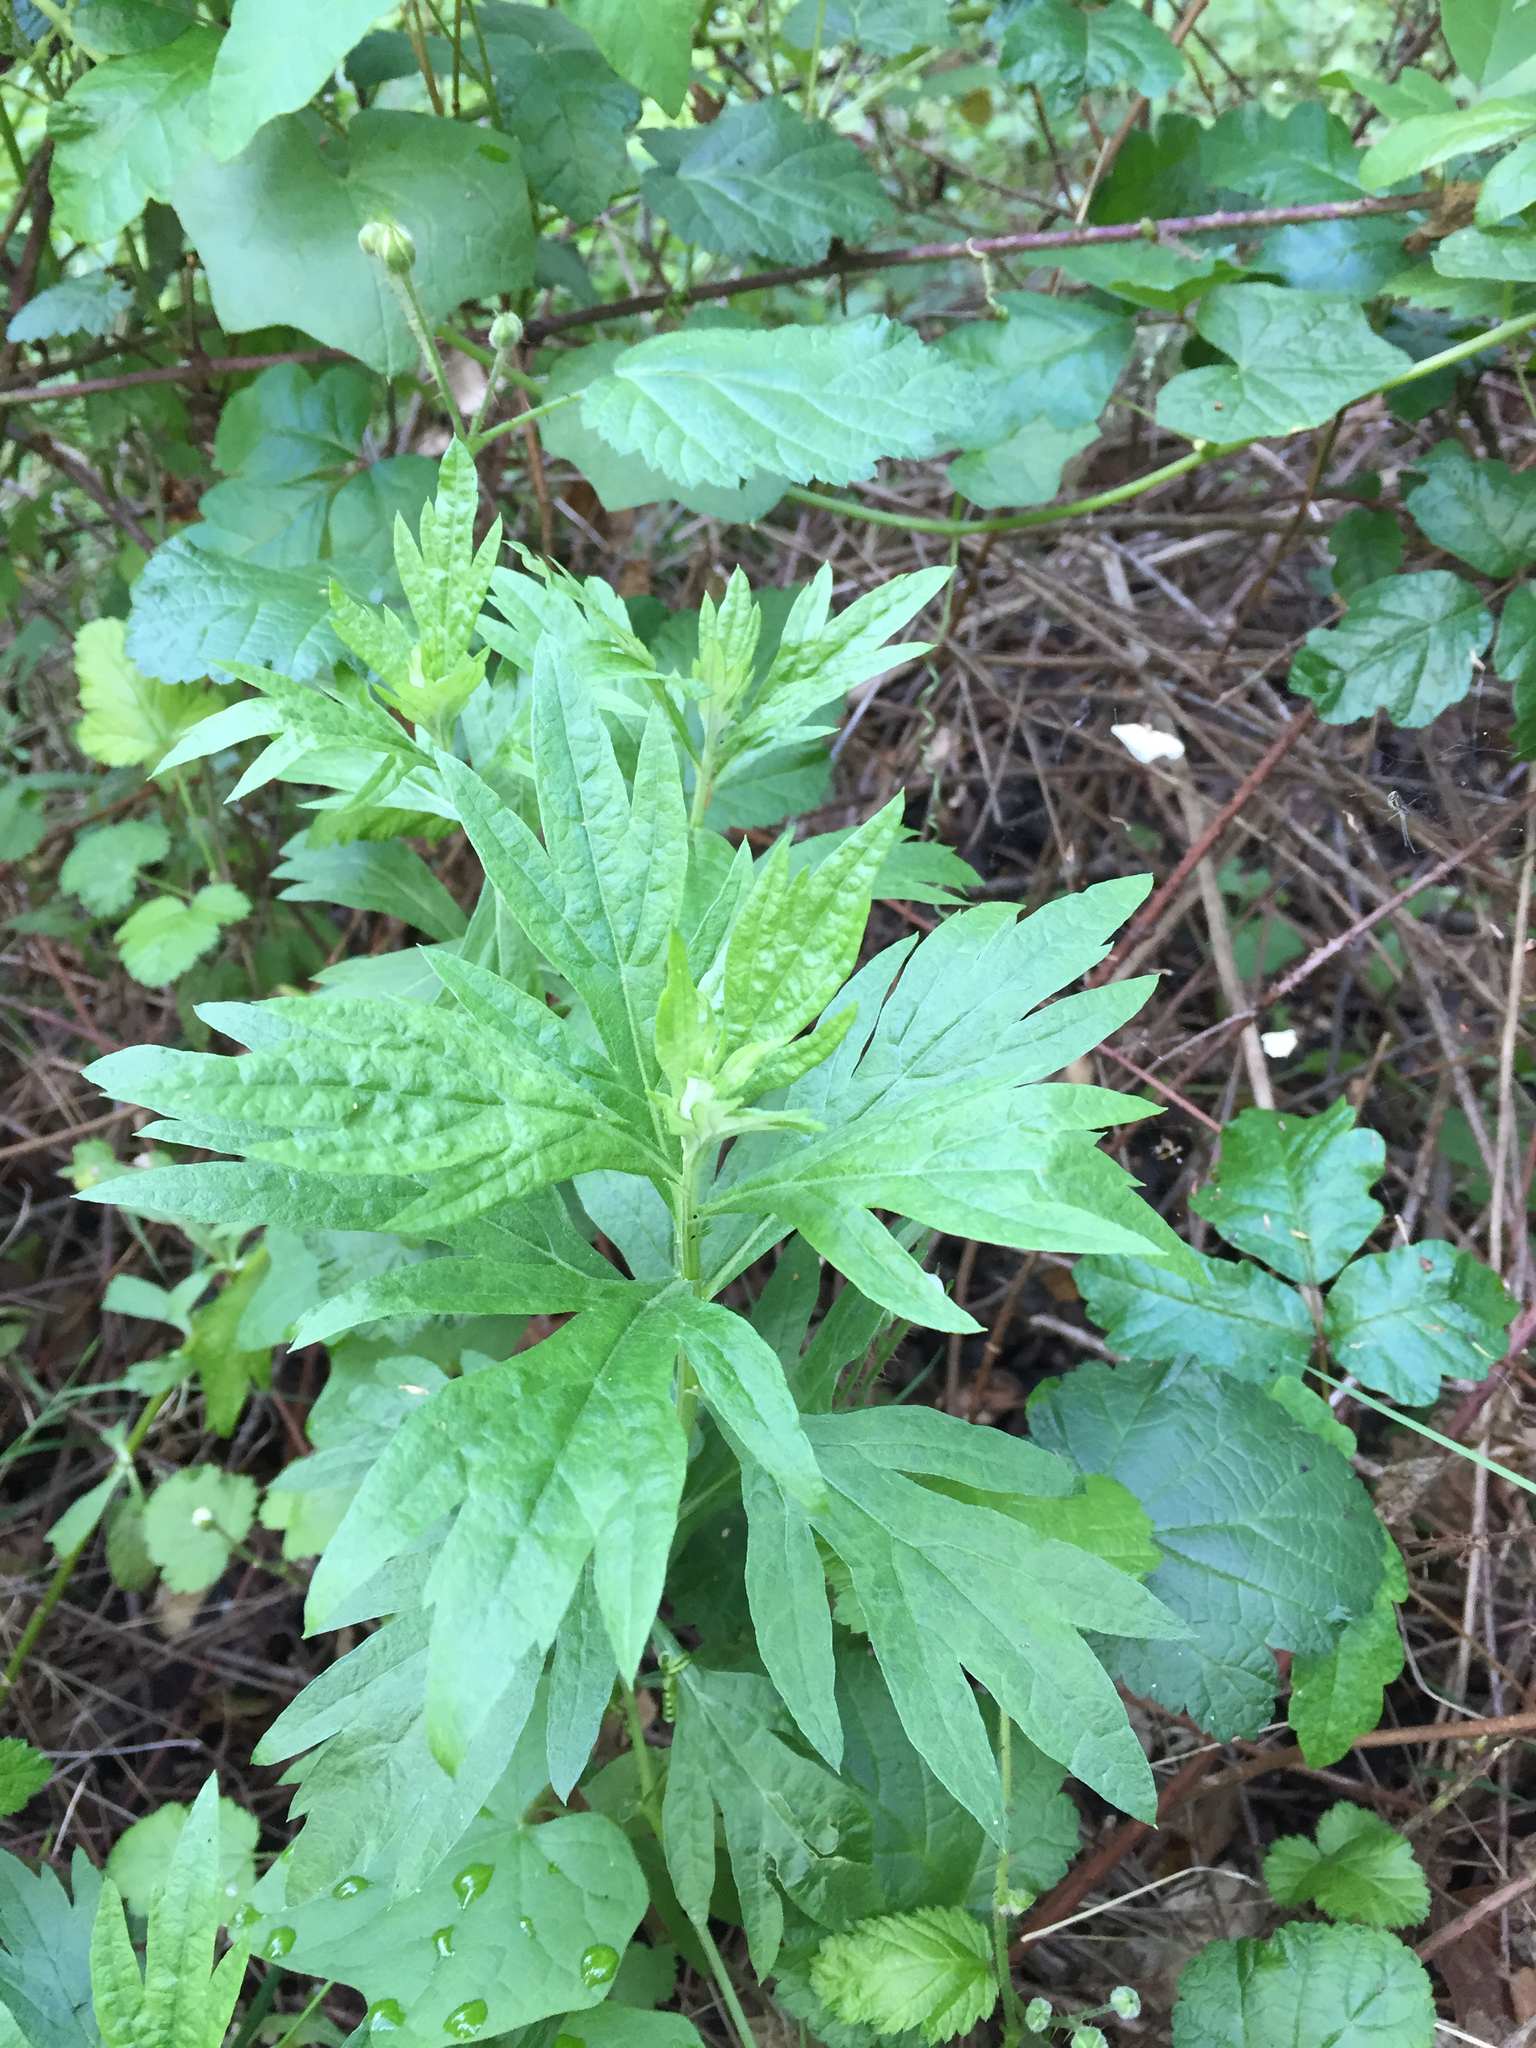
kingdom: Plantae
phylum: Tracheophyta
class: Magnoliopsida
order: Asterales
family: Asteraceae
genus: Artemisia
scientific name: Artemisia douglasiana
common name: Northwest mugwort
